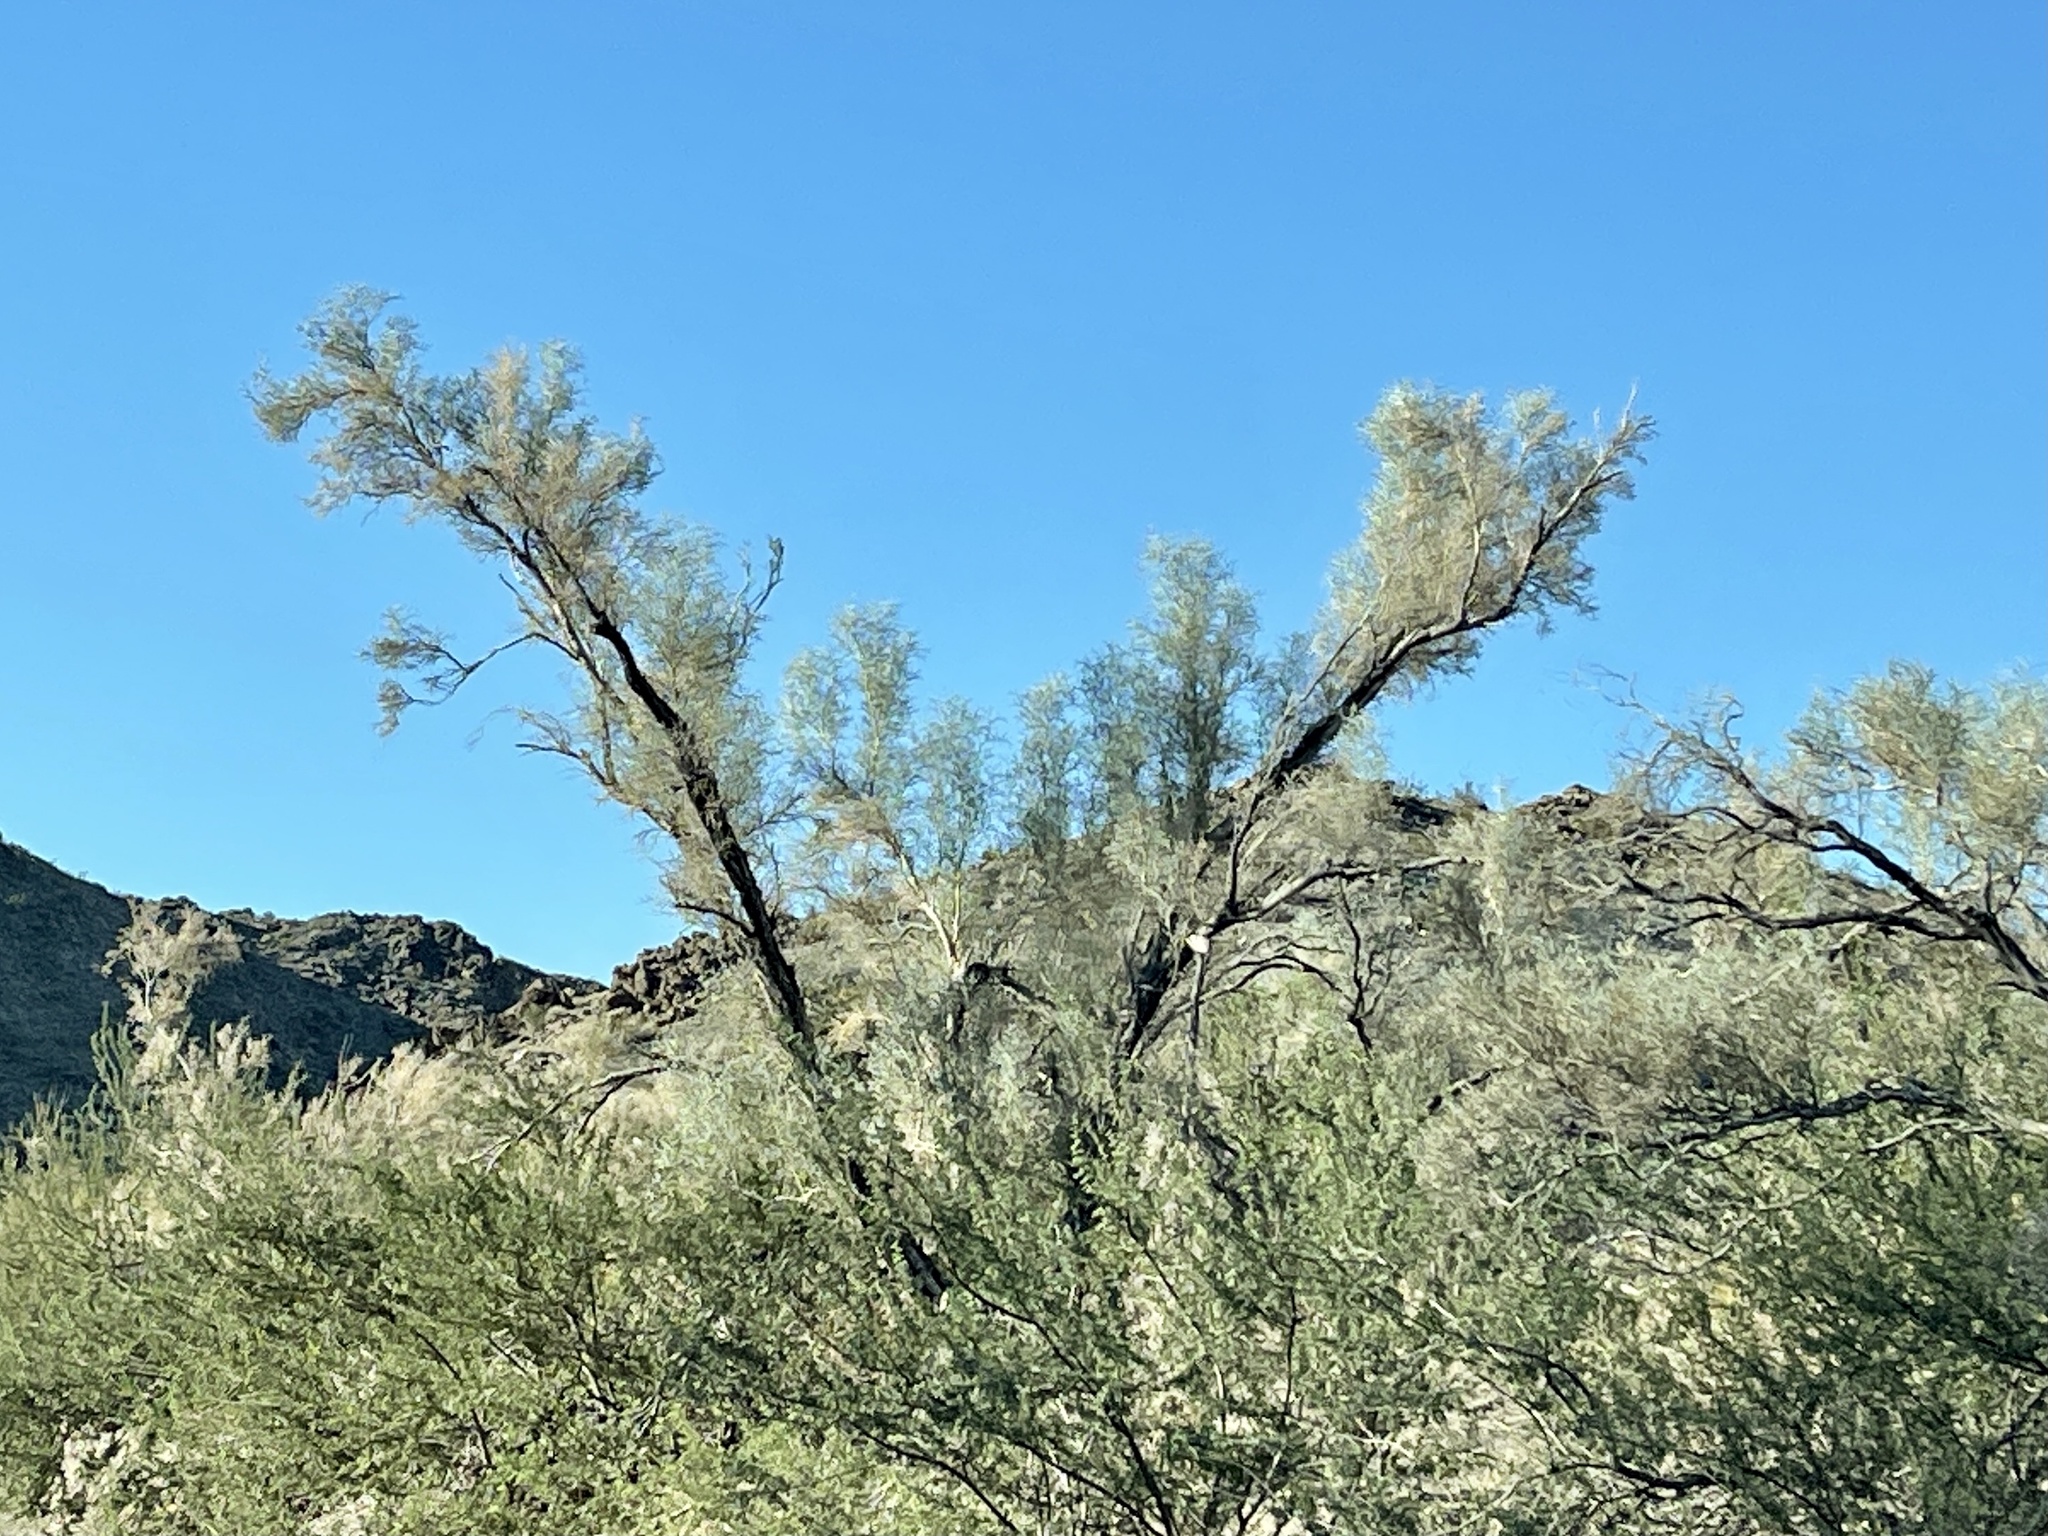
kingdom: Plantae
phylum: Tracheophyta
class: Magnoliopsida
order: Fabales
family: Fabaceae
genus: Psorothamnus
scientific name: Psorothamnus spinosus
